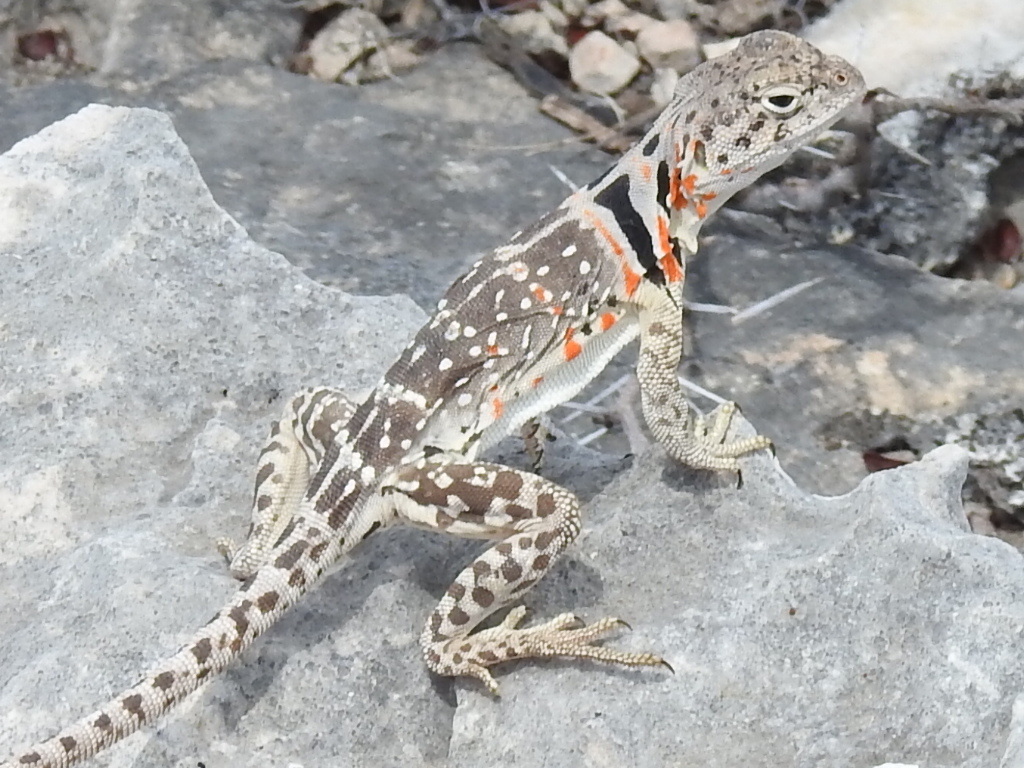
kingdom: Animalia
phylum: Chordata
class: Squamata
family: Crotaphytidae
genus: Crotaphytus
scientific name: Crotaphytus collaris
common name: Collared lizard
